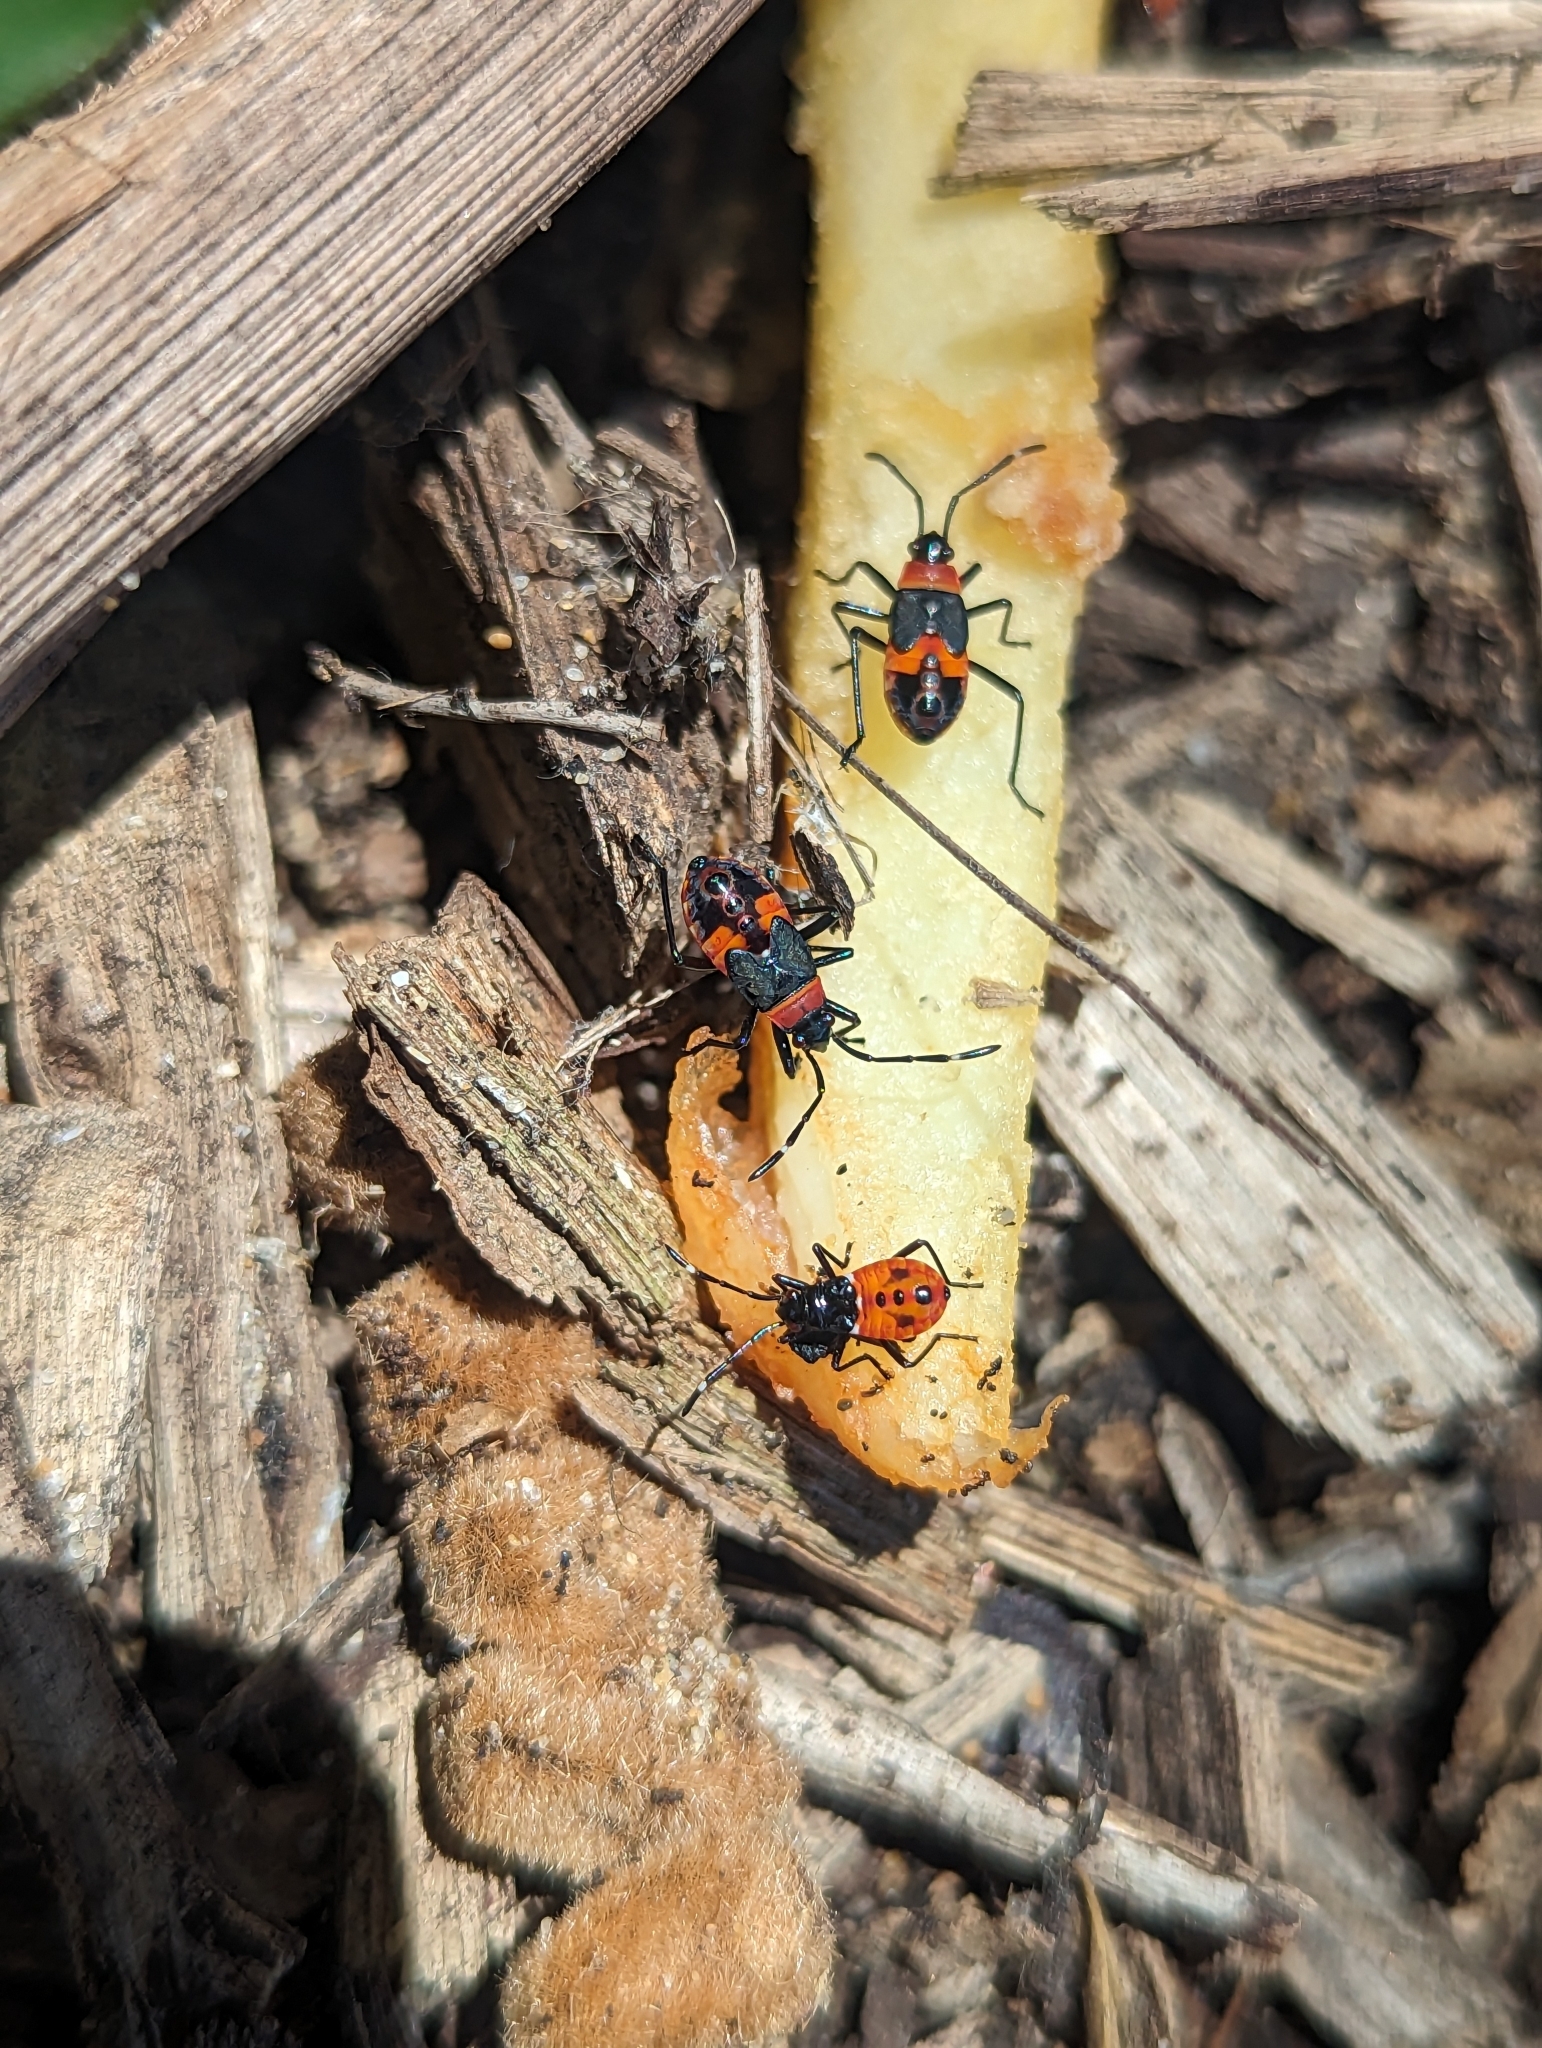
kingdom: Animalia
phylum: Arthropoda
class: Insecta
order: Hemiptera
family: Pyrrhocoridae
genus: Dindymus
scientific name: Dindymus
